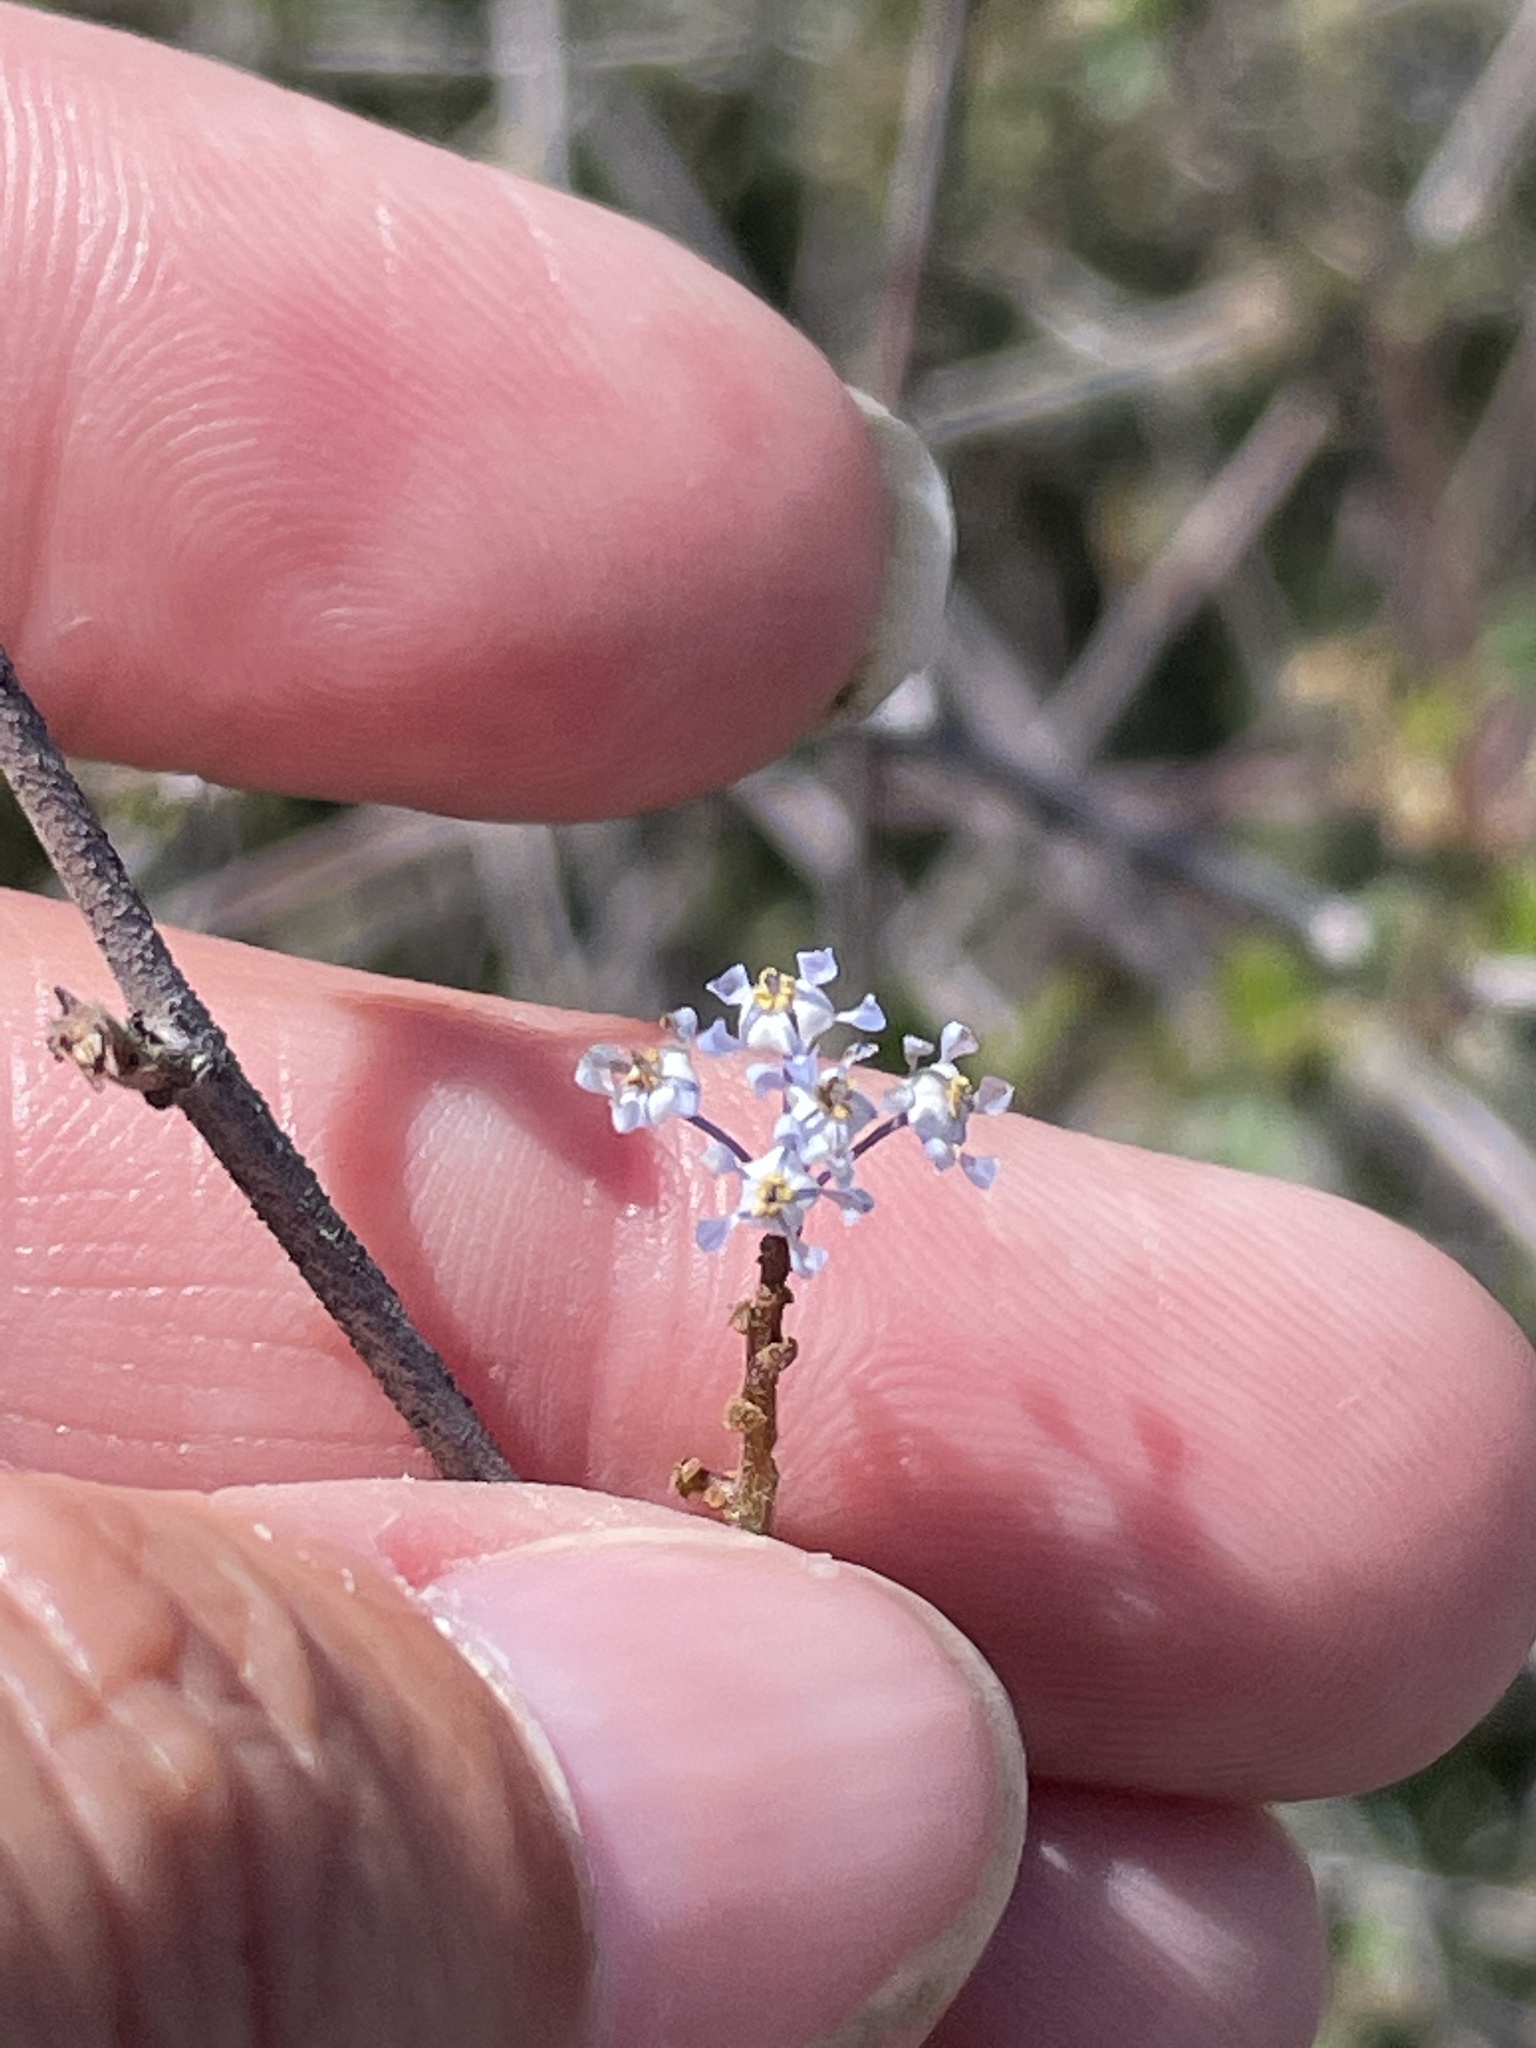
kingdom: Plantae
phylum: Tracheophyta
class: Magnoliopsida
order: Rosales
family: Rhamnaceae
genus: Ceanothus
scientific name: Ceanothus tomentosus
